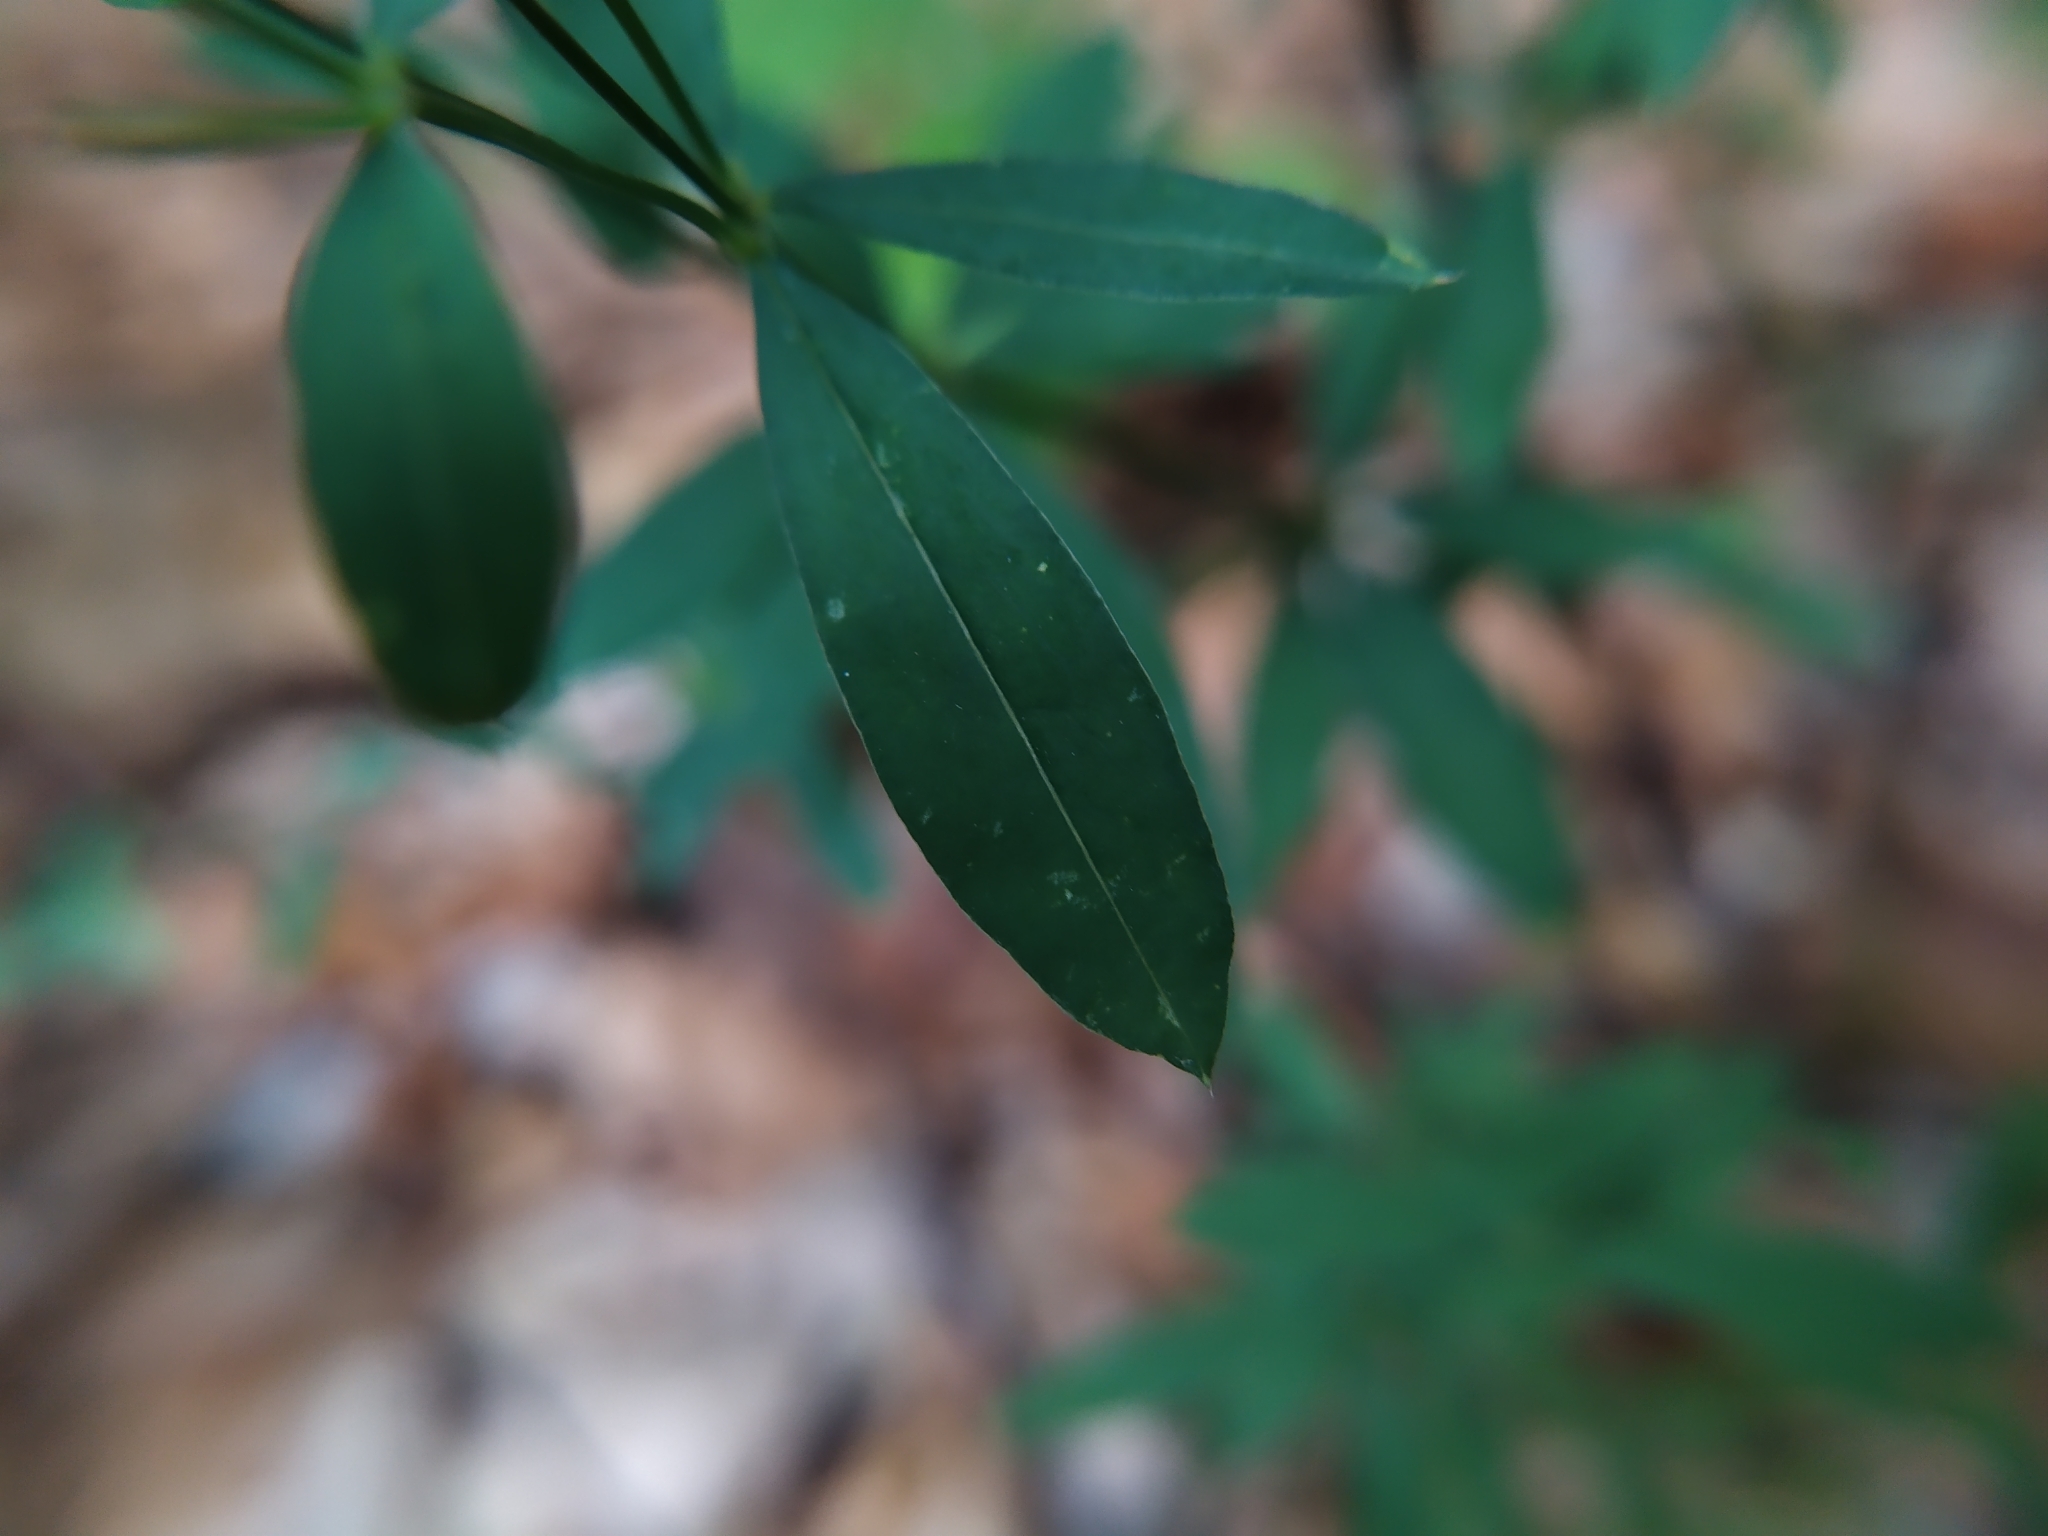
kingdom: Plantae
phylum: Tracheophyta
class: Magnoliopsida
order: Gentianales
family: Rubiaceae
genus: Galium
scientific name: Galium sylvaticum
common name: Wood bedstraw
